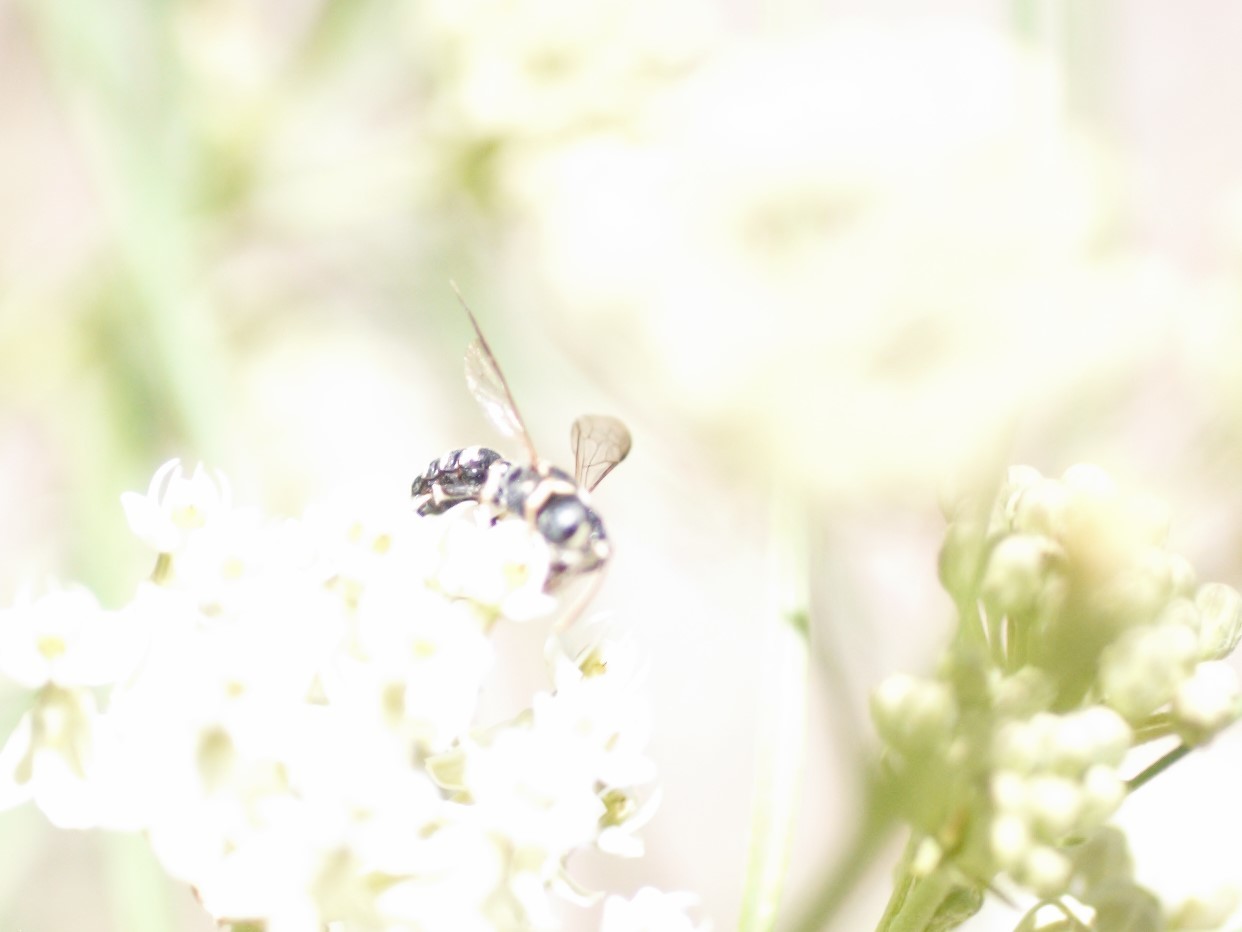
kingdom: Animalia
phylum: Arthropoda
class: Insecta
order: Hymenoptera
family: Apidae
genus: Brachymelecta
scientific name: Brachymelecta californica
